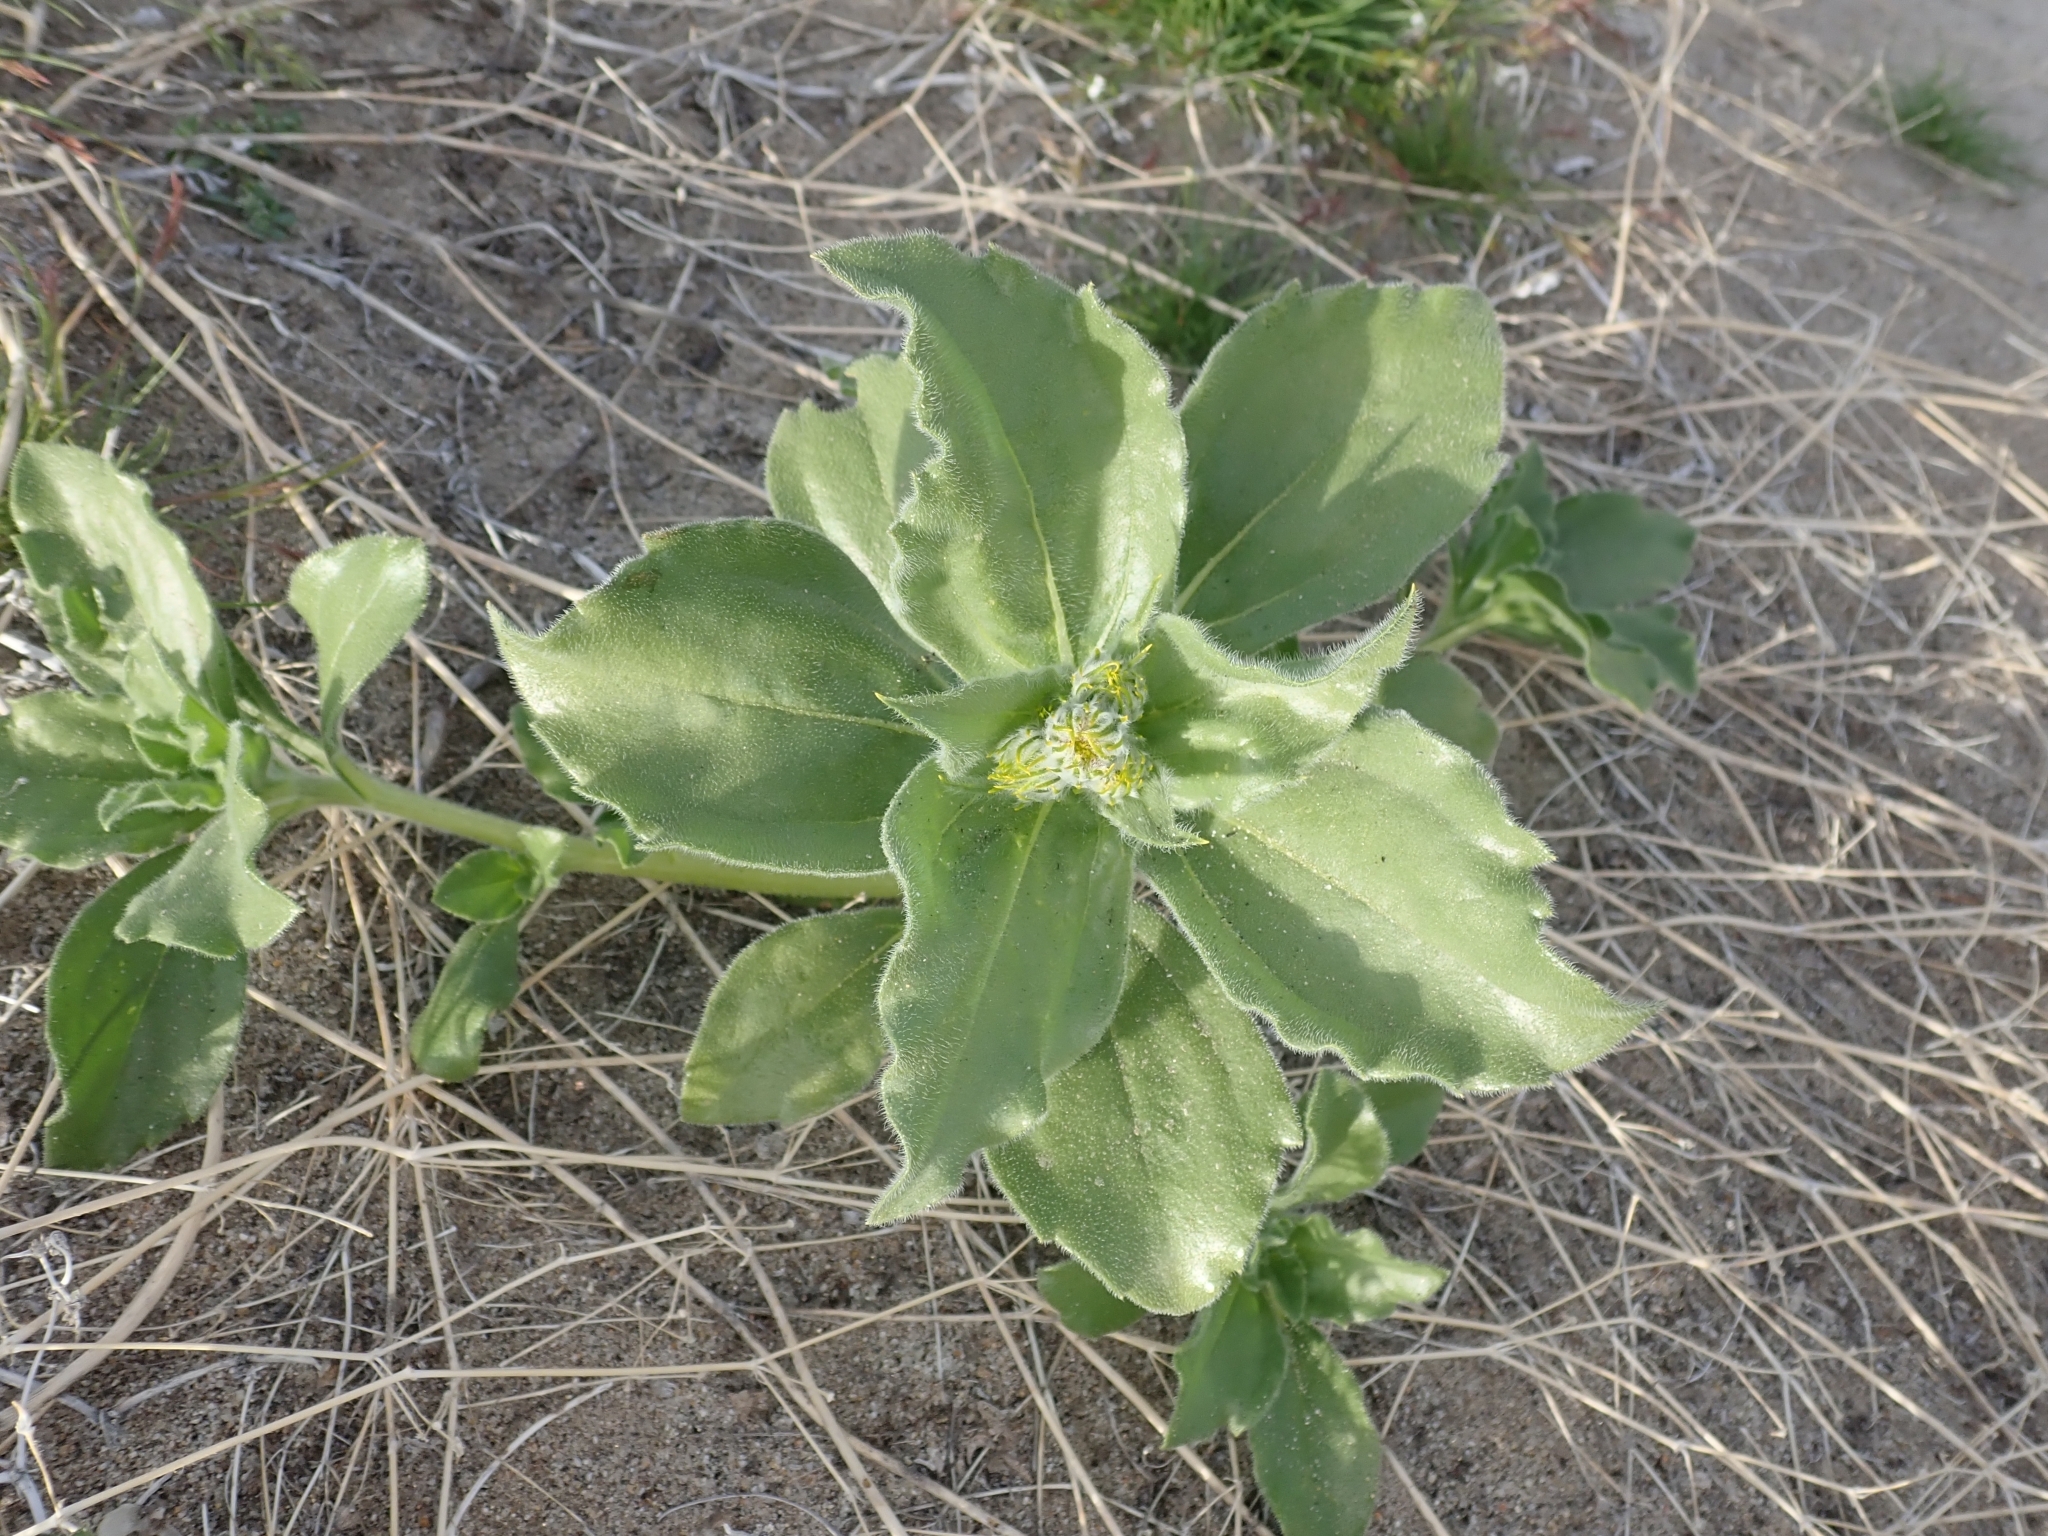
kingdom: Plantae
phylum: Tracheophyta
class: Magnoliopsida
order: Asterales
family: Asteraceae
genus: Geraea
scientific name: Geraea canescens
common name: Desert-gold
